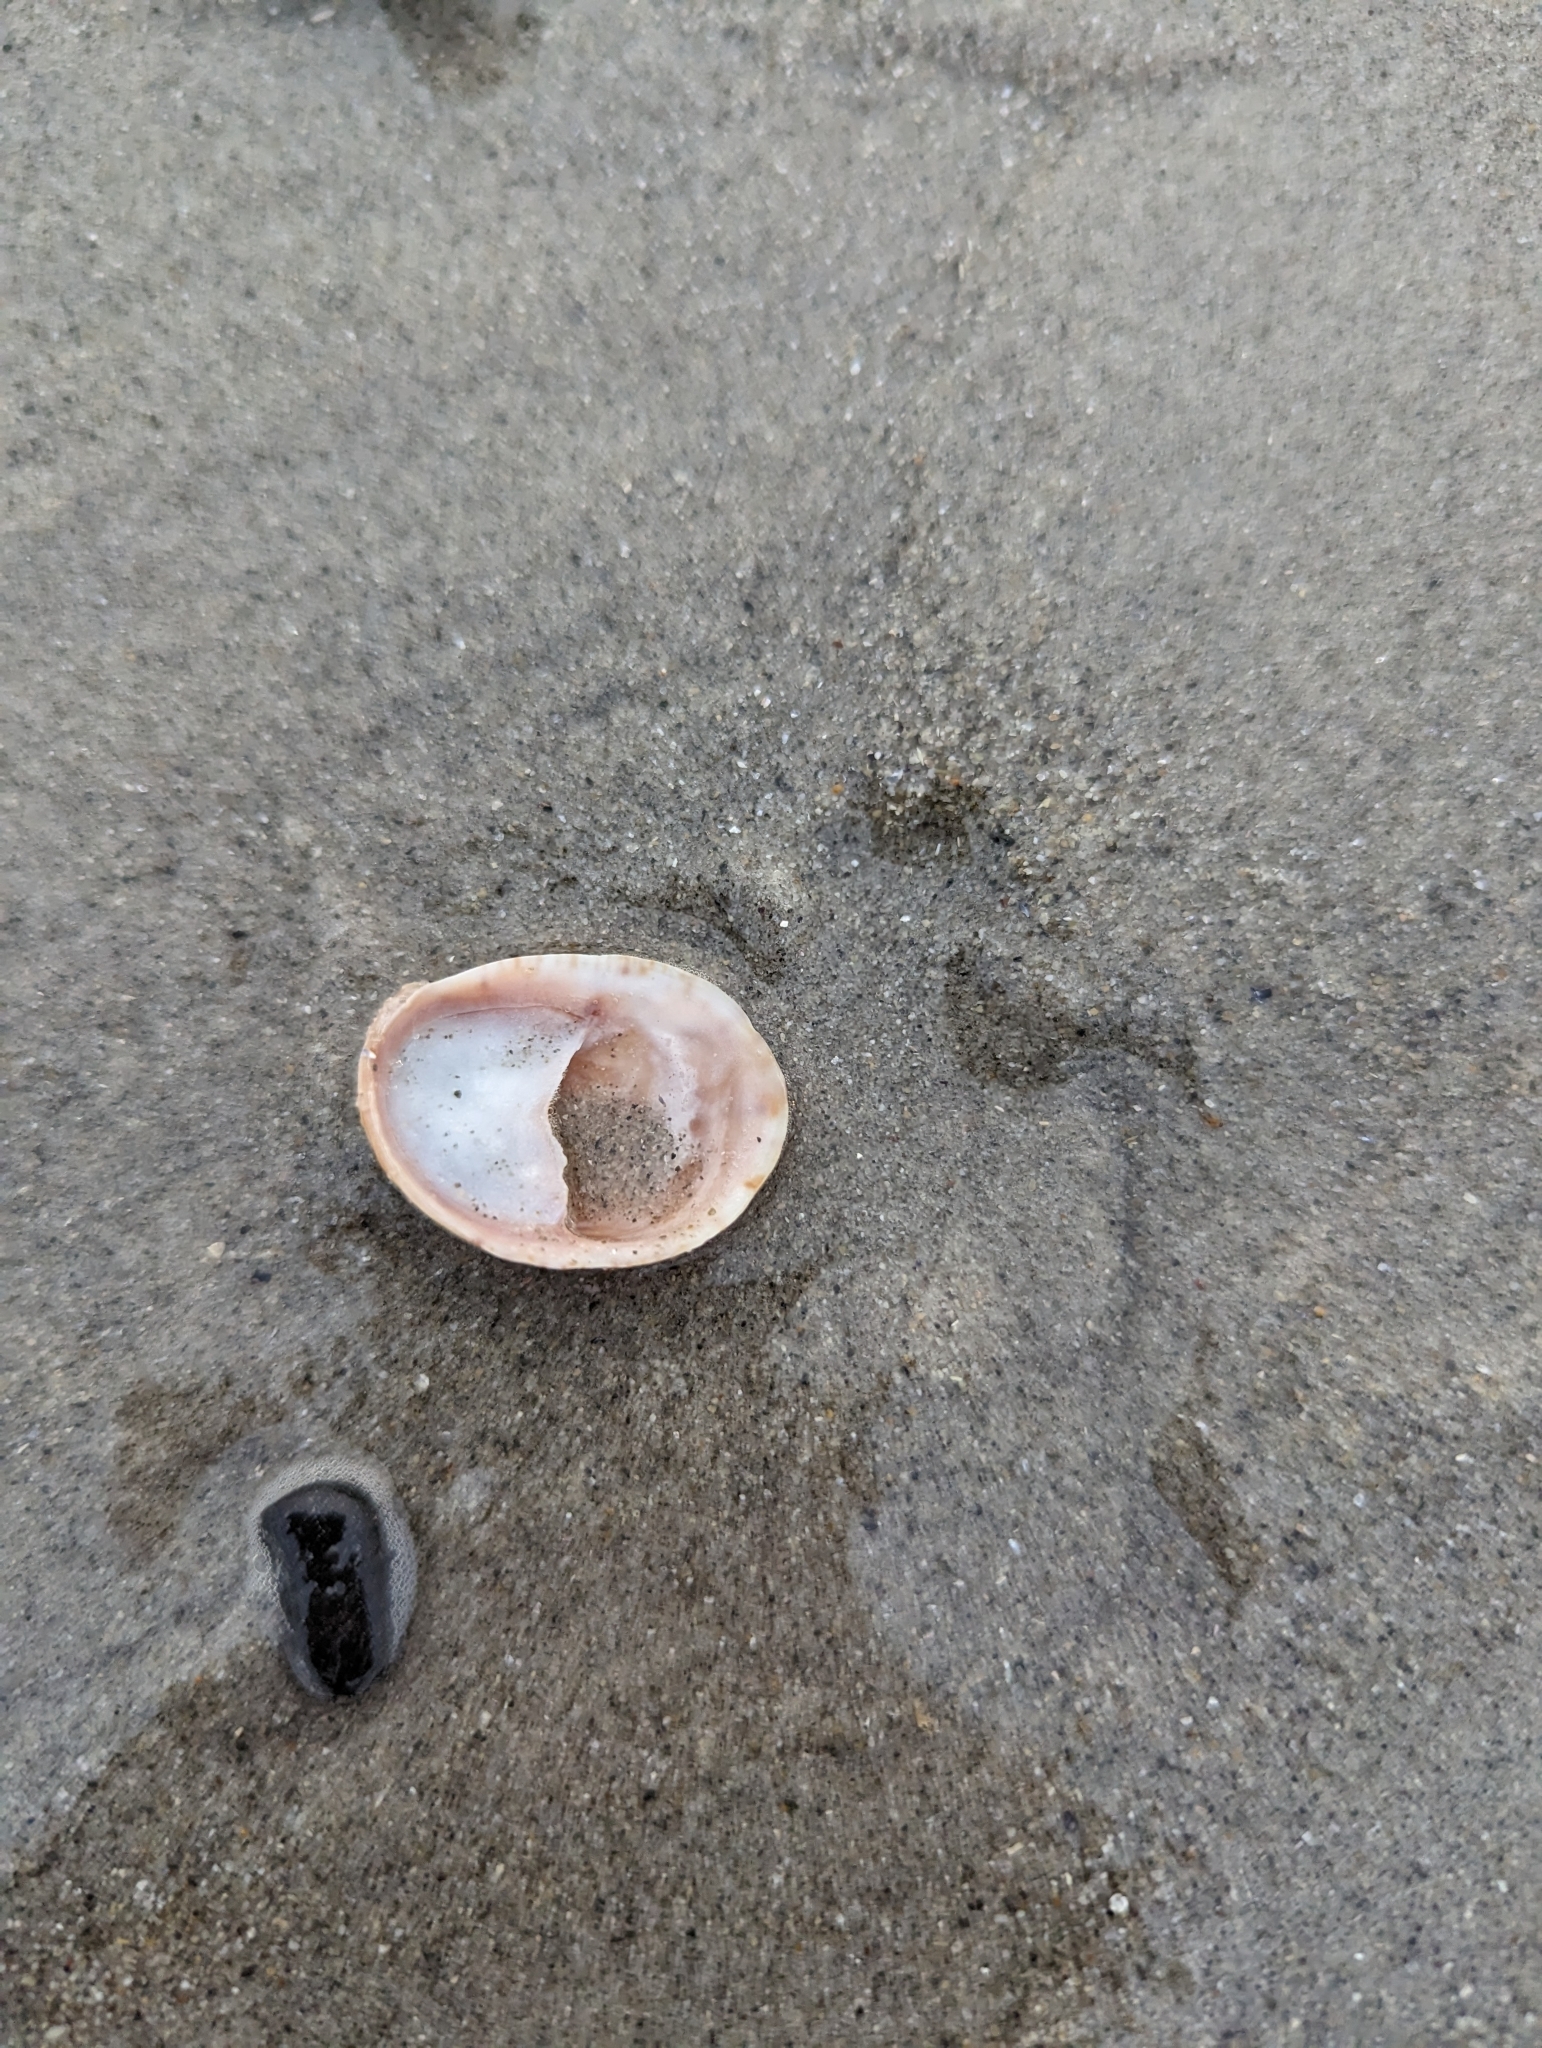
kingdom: Animalia
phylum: Mollusca
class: Gastropoda
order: Littorinimorpha
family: Calyptraeidae
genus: Crepidula
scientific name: Crepidula fornicata
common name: Slipper limpet
